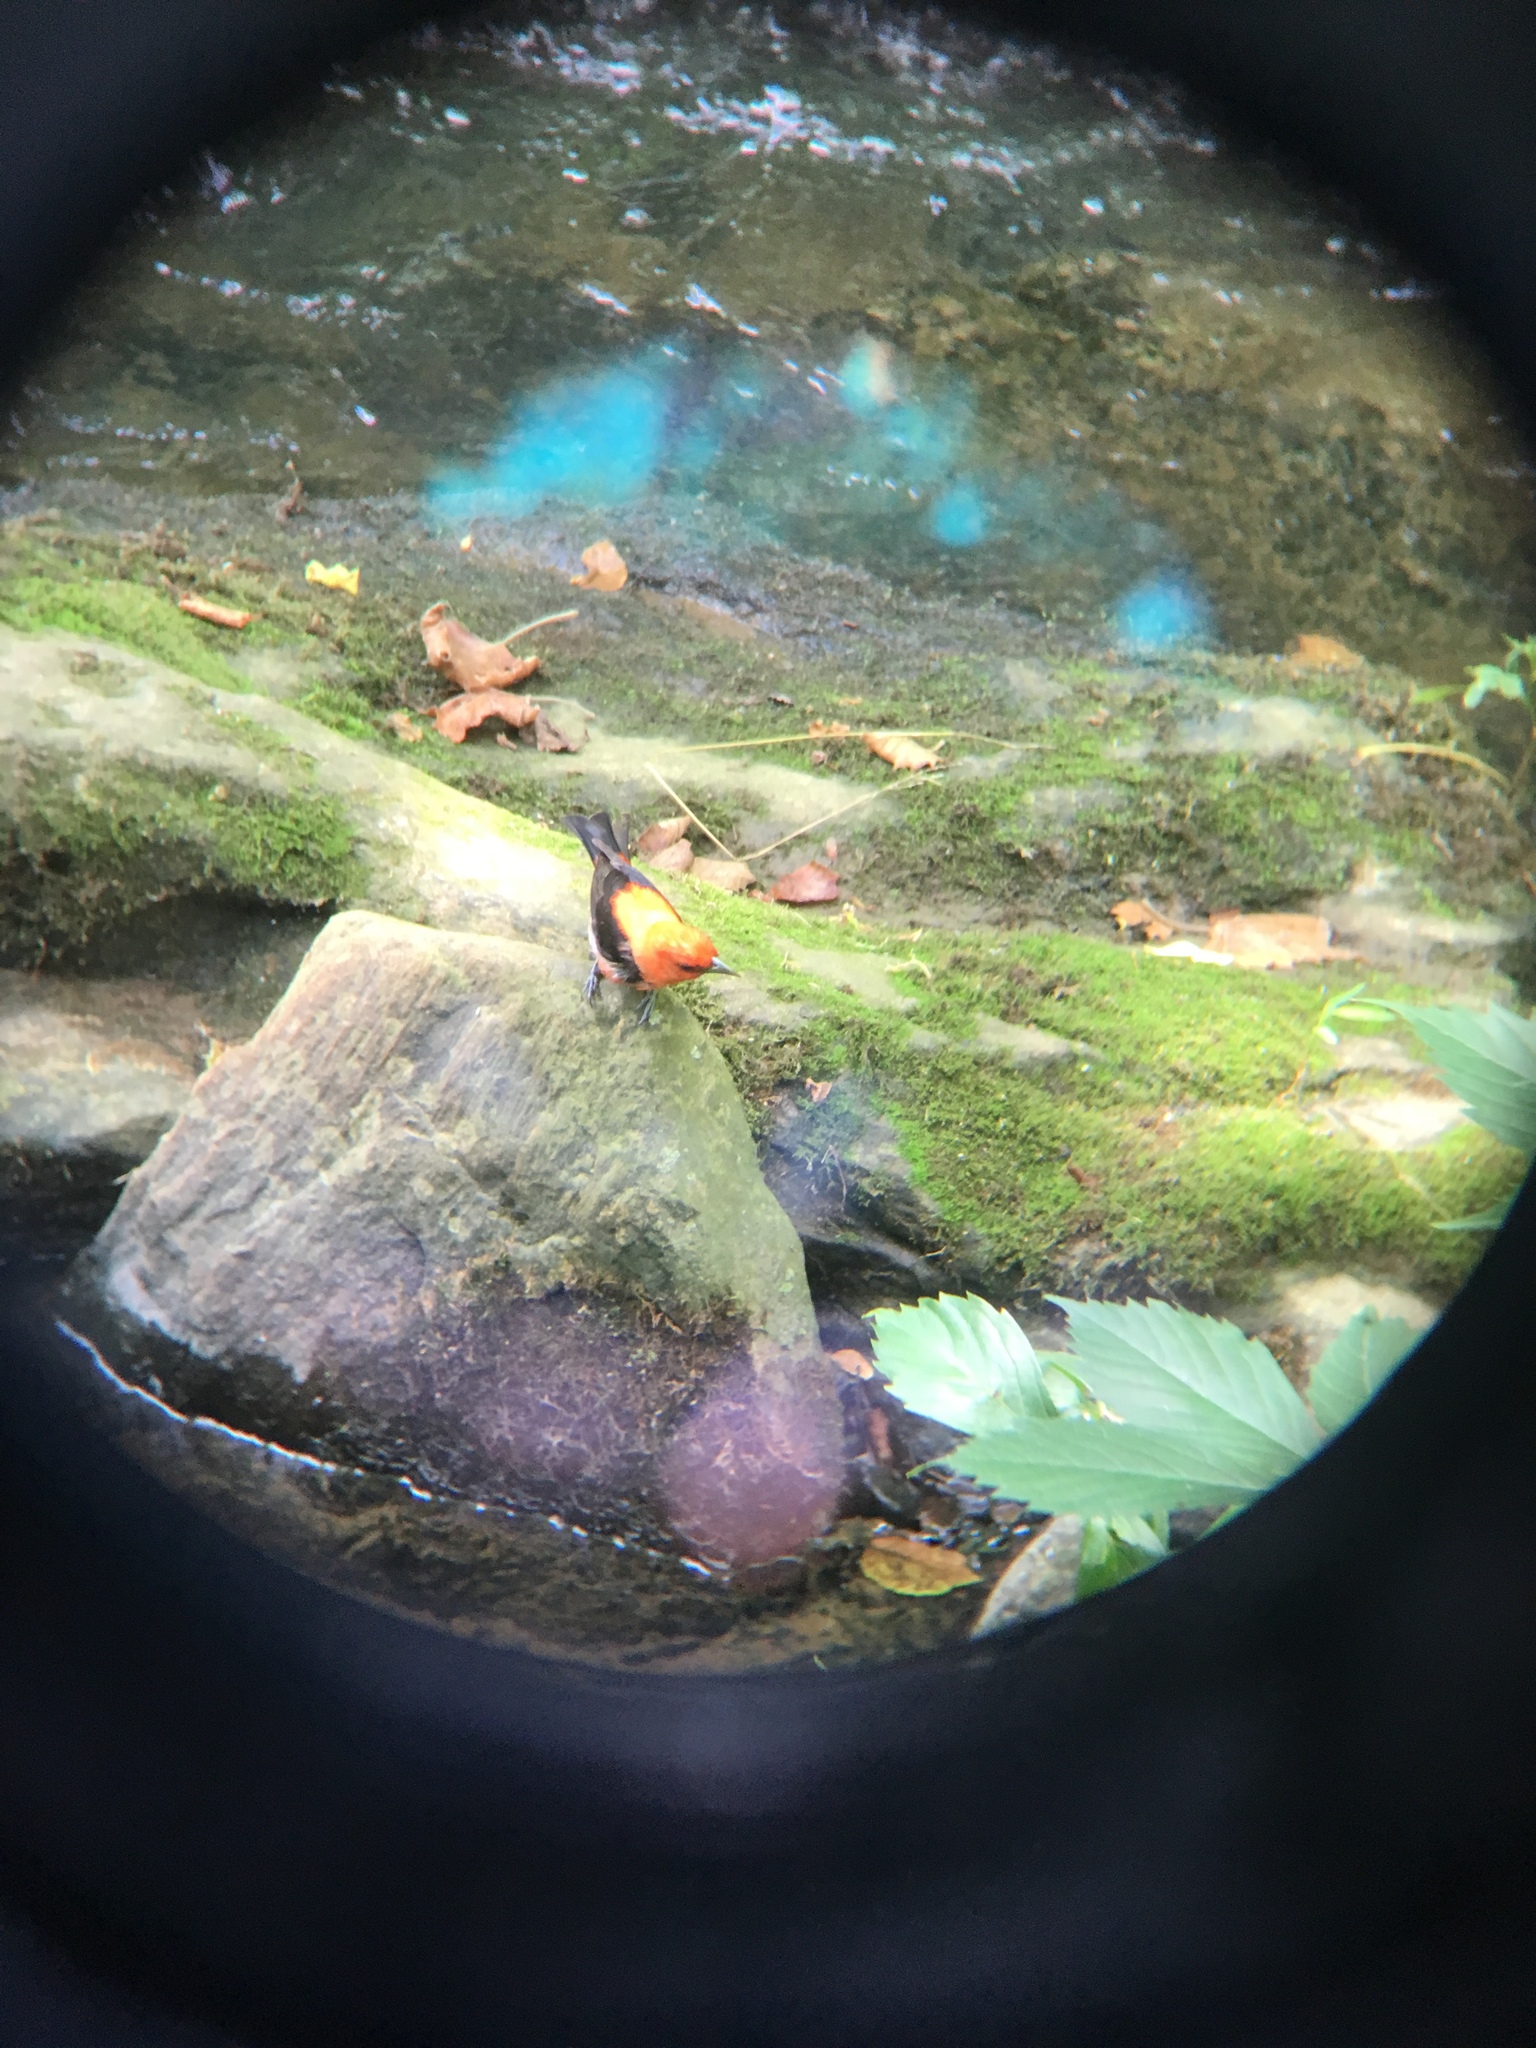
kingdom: Animalia
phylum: Chordata
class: Aves
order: Passeriformes
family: Cardinalidae
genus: Piranga
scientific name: Piranga olivacea
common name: Scarlet tanager
